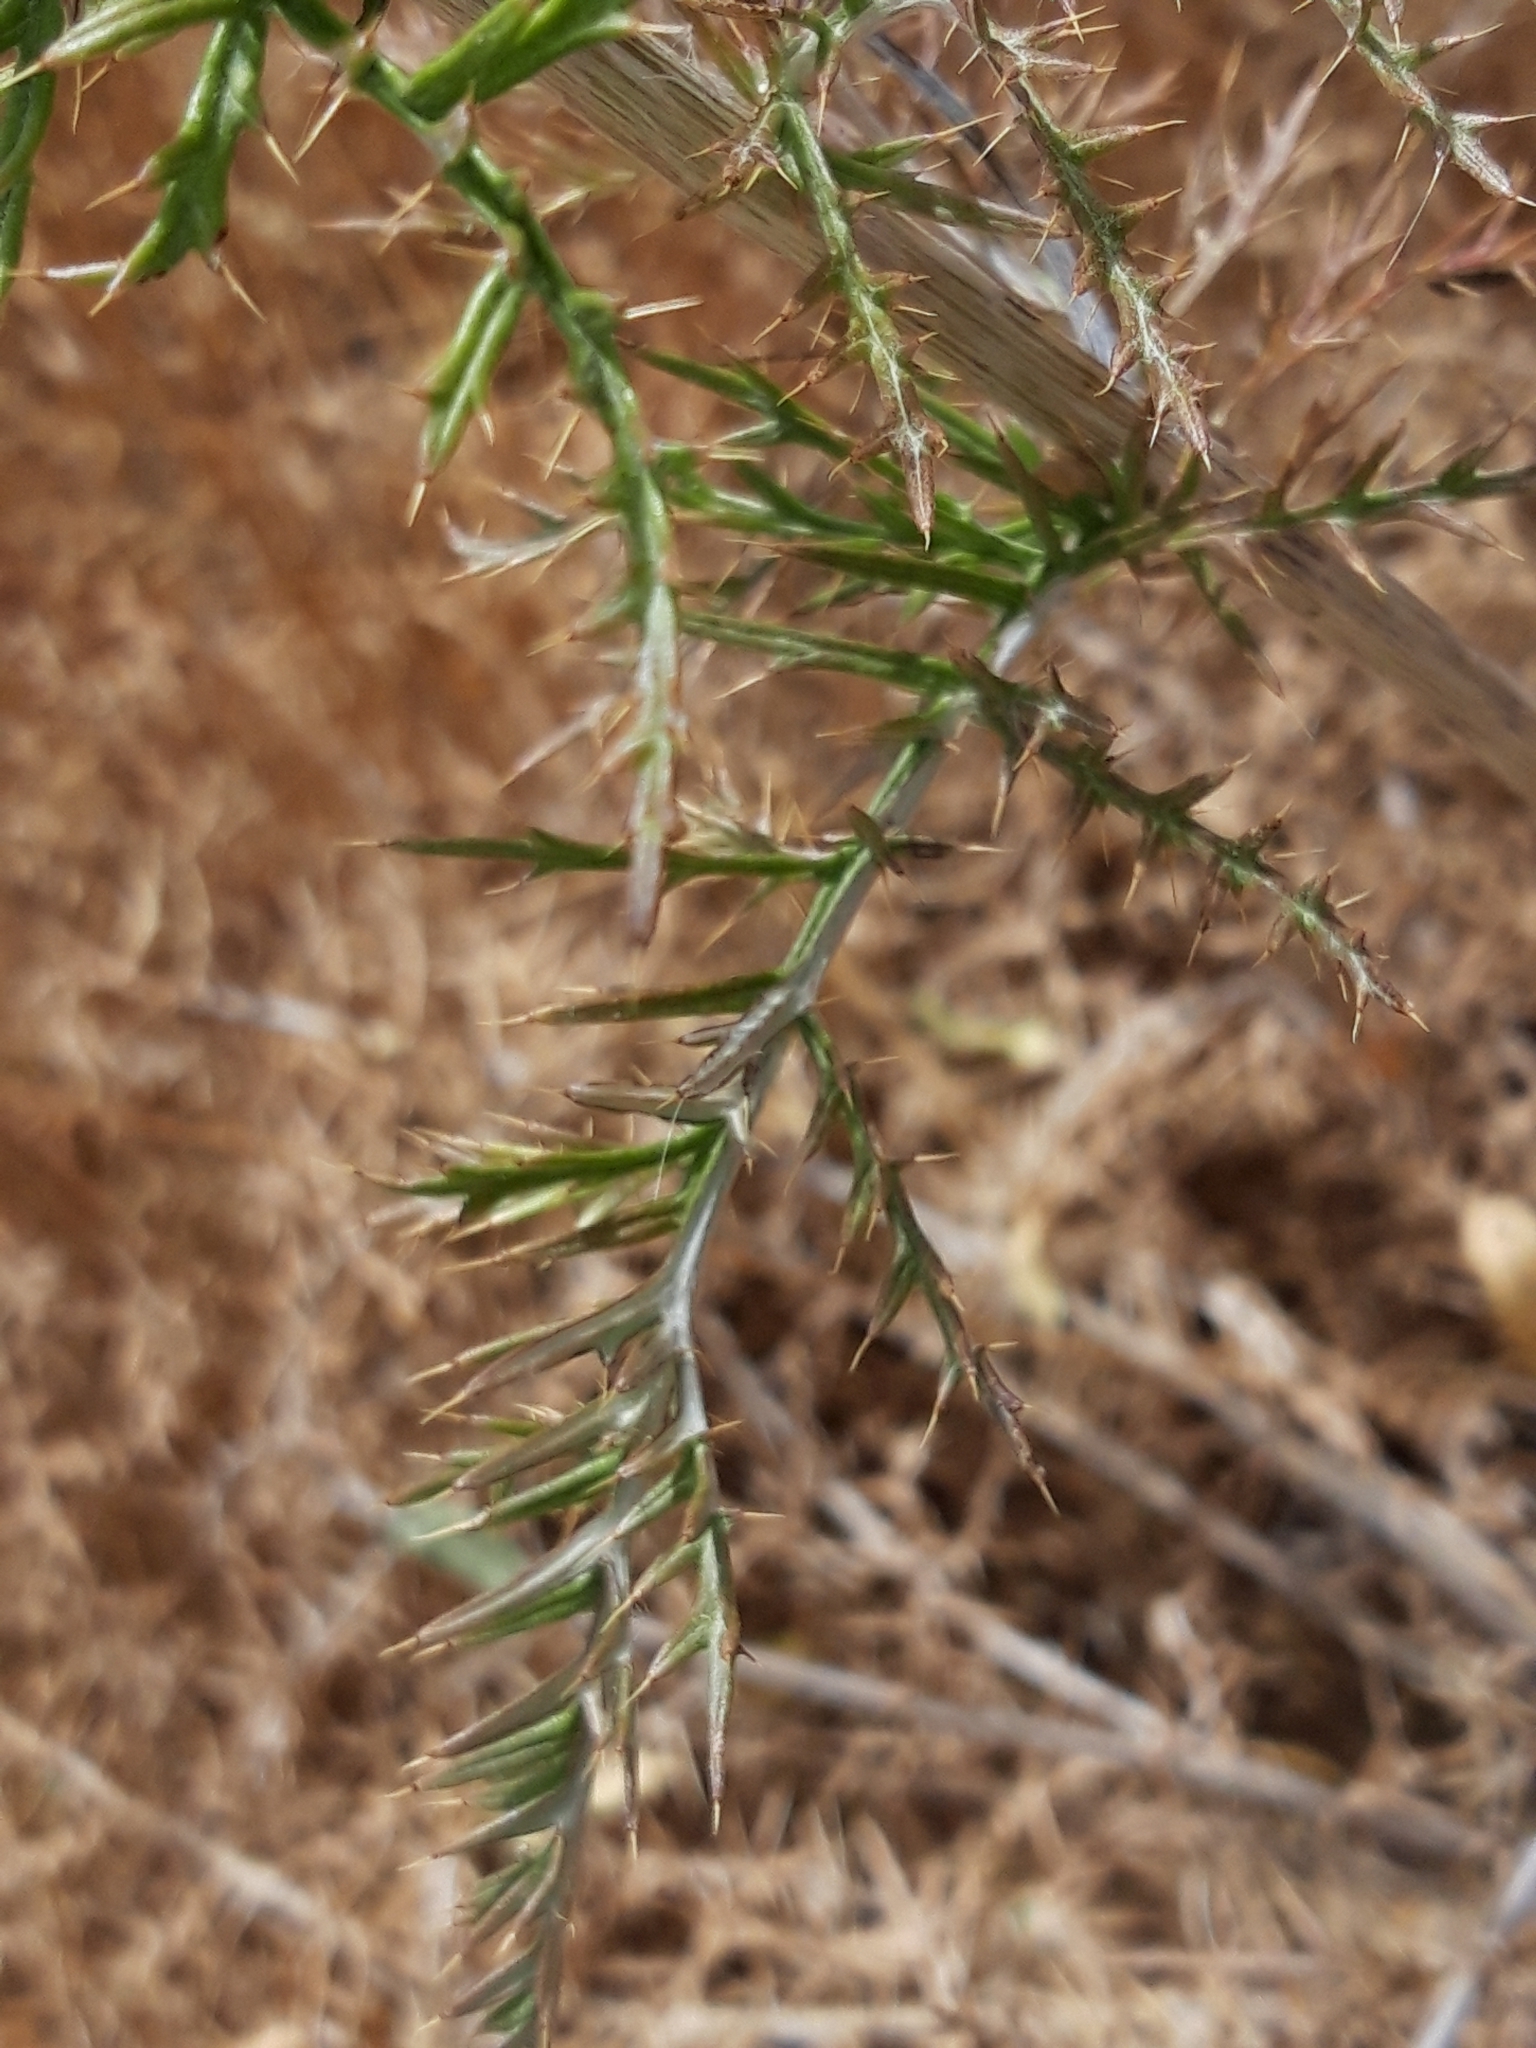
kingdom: Plantae
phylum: Tracheophyta
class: Magnoliopsida
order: Asterales
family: Asteraceae
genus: Cynara
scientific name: Cynara humilis
